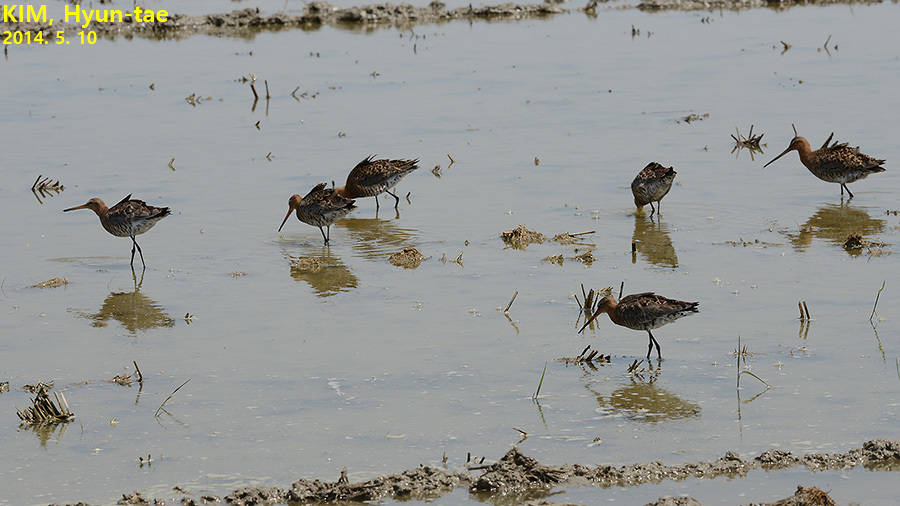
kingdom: Animalia
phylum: Chordata
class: Aves
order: Charadriiformes
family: Scolopacidae
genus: Limosa
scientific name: Limosa limosa
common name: Black-tailed godwit
